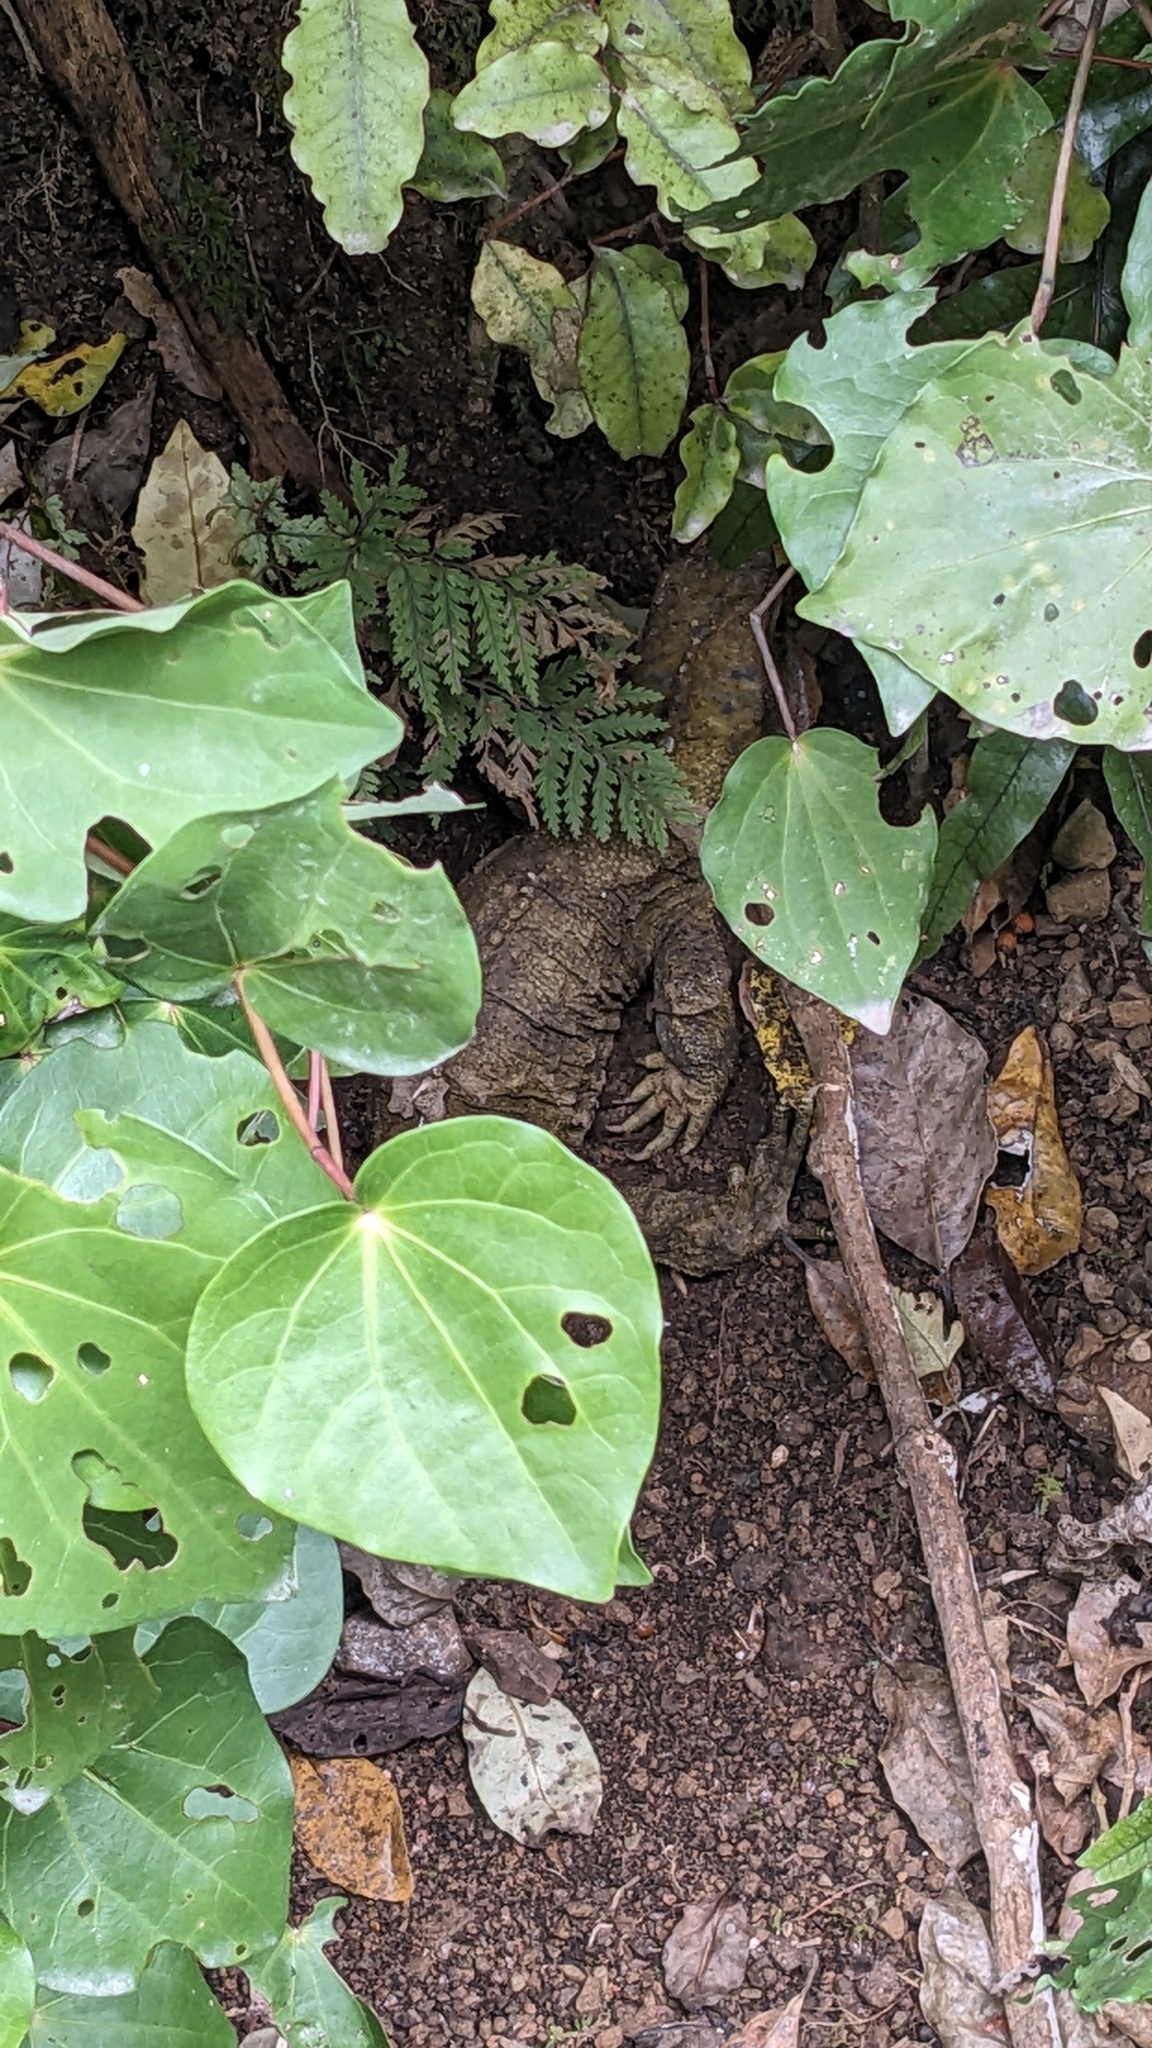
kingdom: Animalia
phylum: Chordata
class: Sphenodontia
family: Sphenodontidae
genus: Sphenodon
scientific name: Sphenodon punctatus
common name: Tuatara
